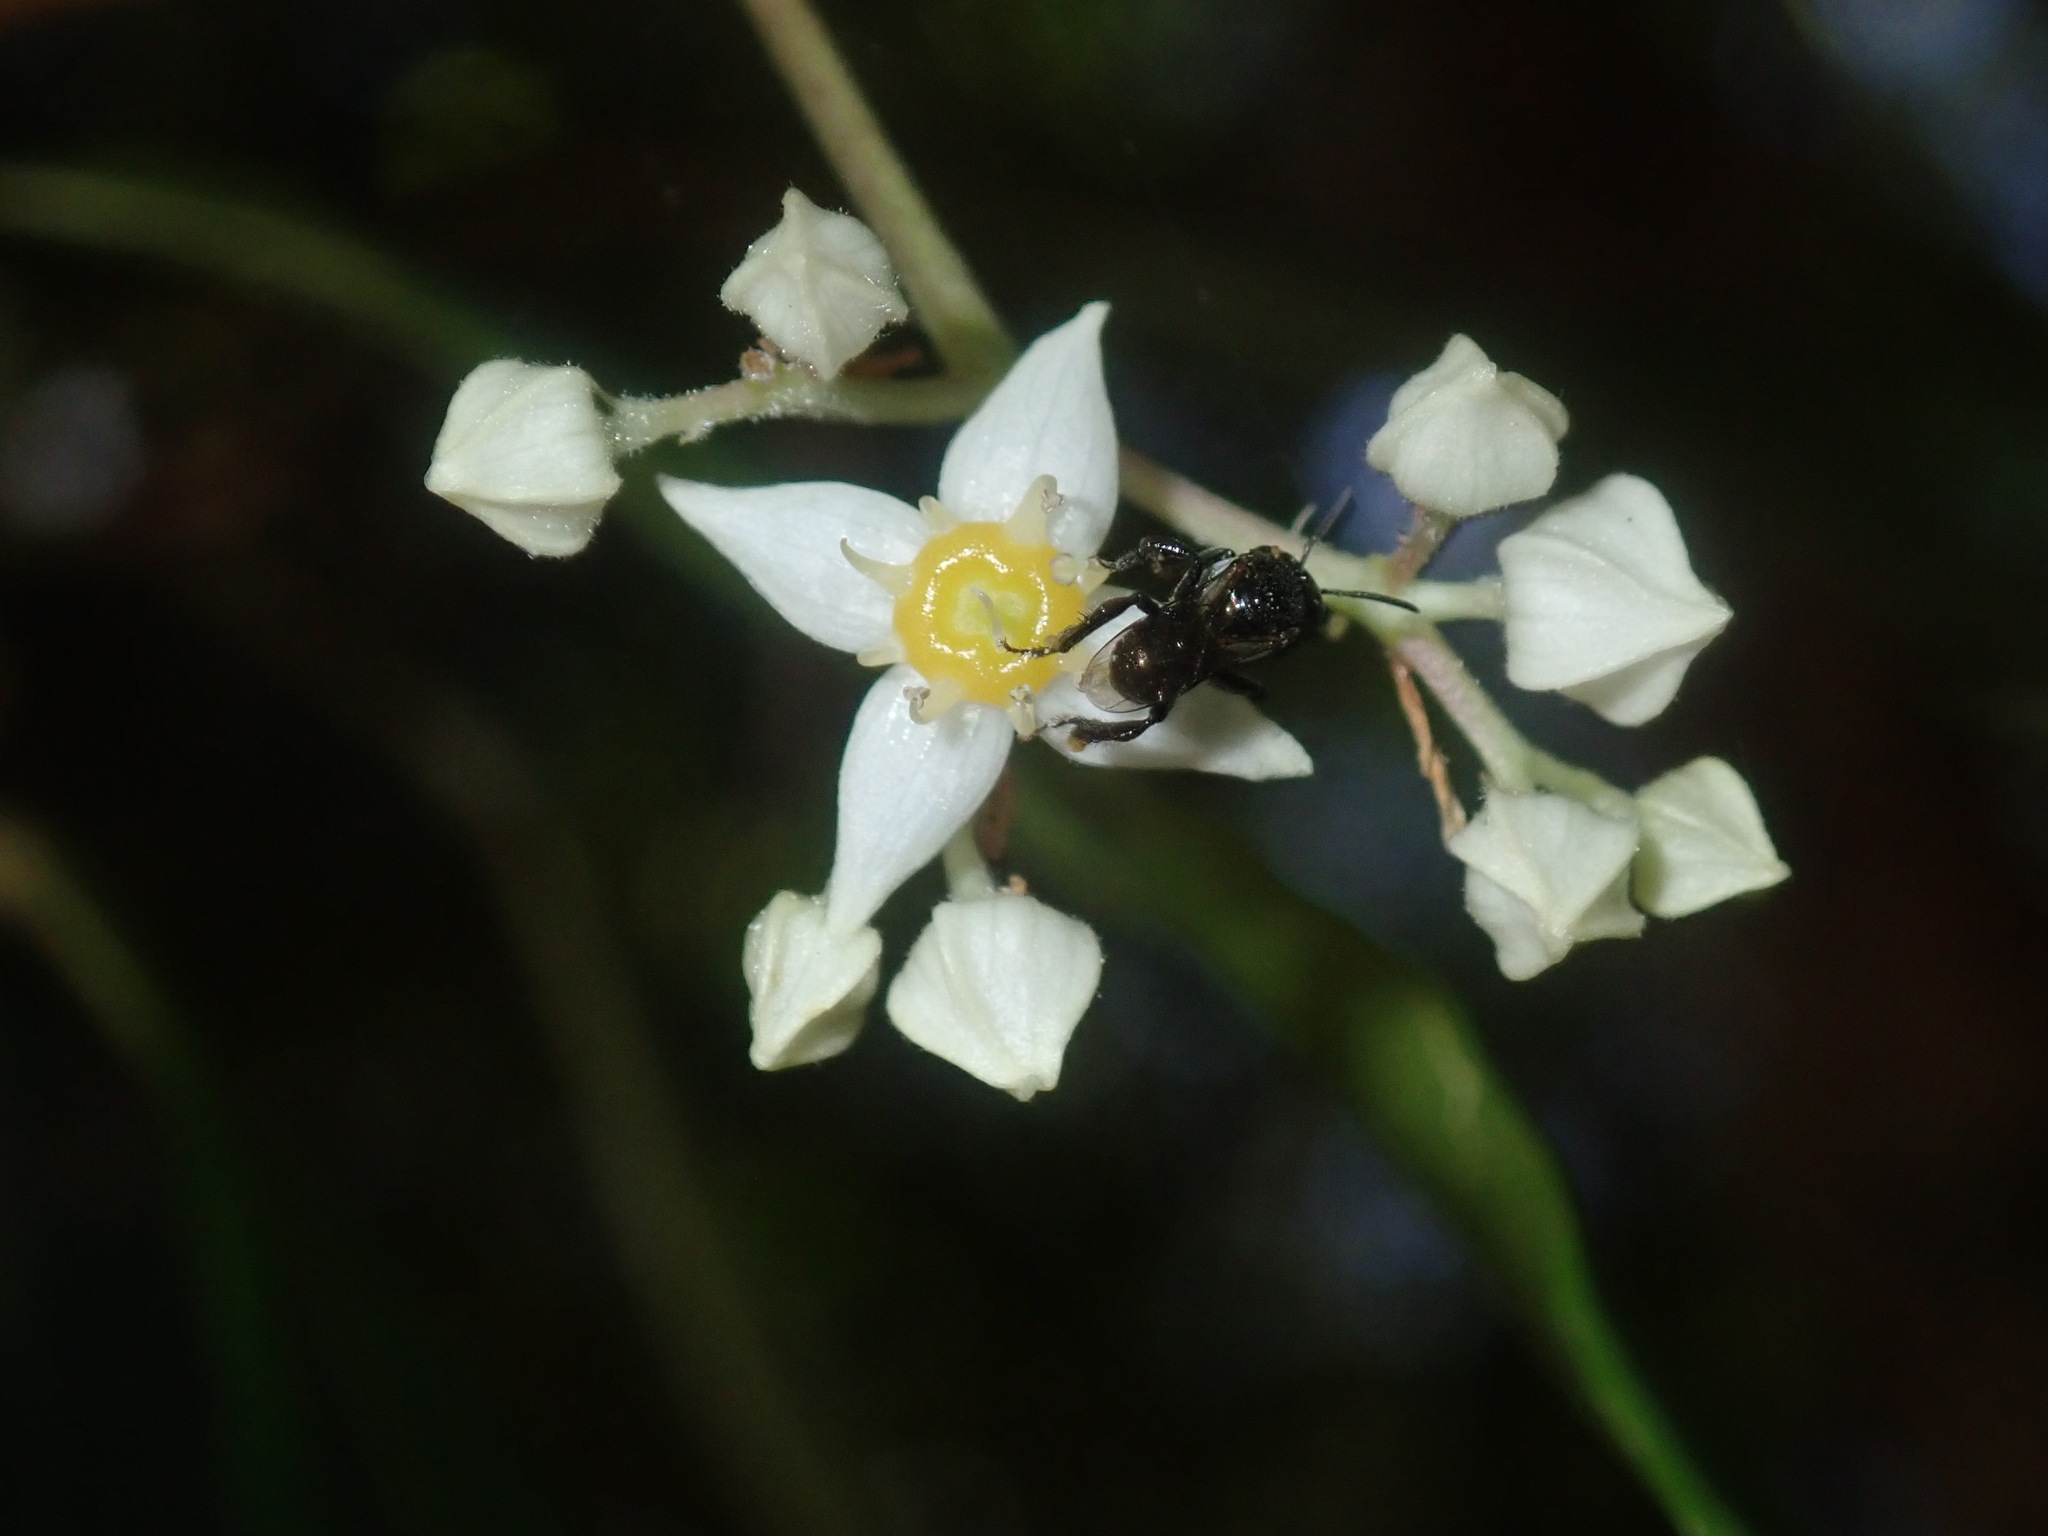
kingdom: Animalia
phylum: Arthropoda
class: Insecta
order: Hymenoptera
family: Apidae
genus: Tetragonula
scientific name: Tetragonula carbonaria
